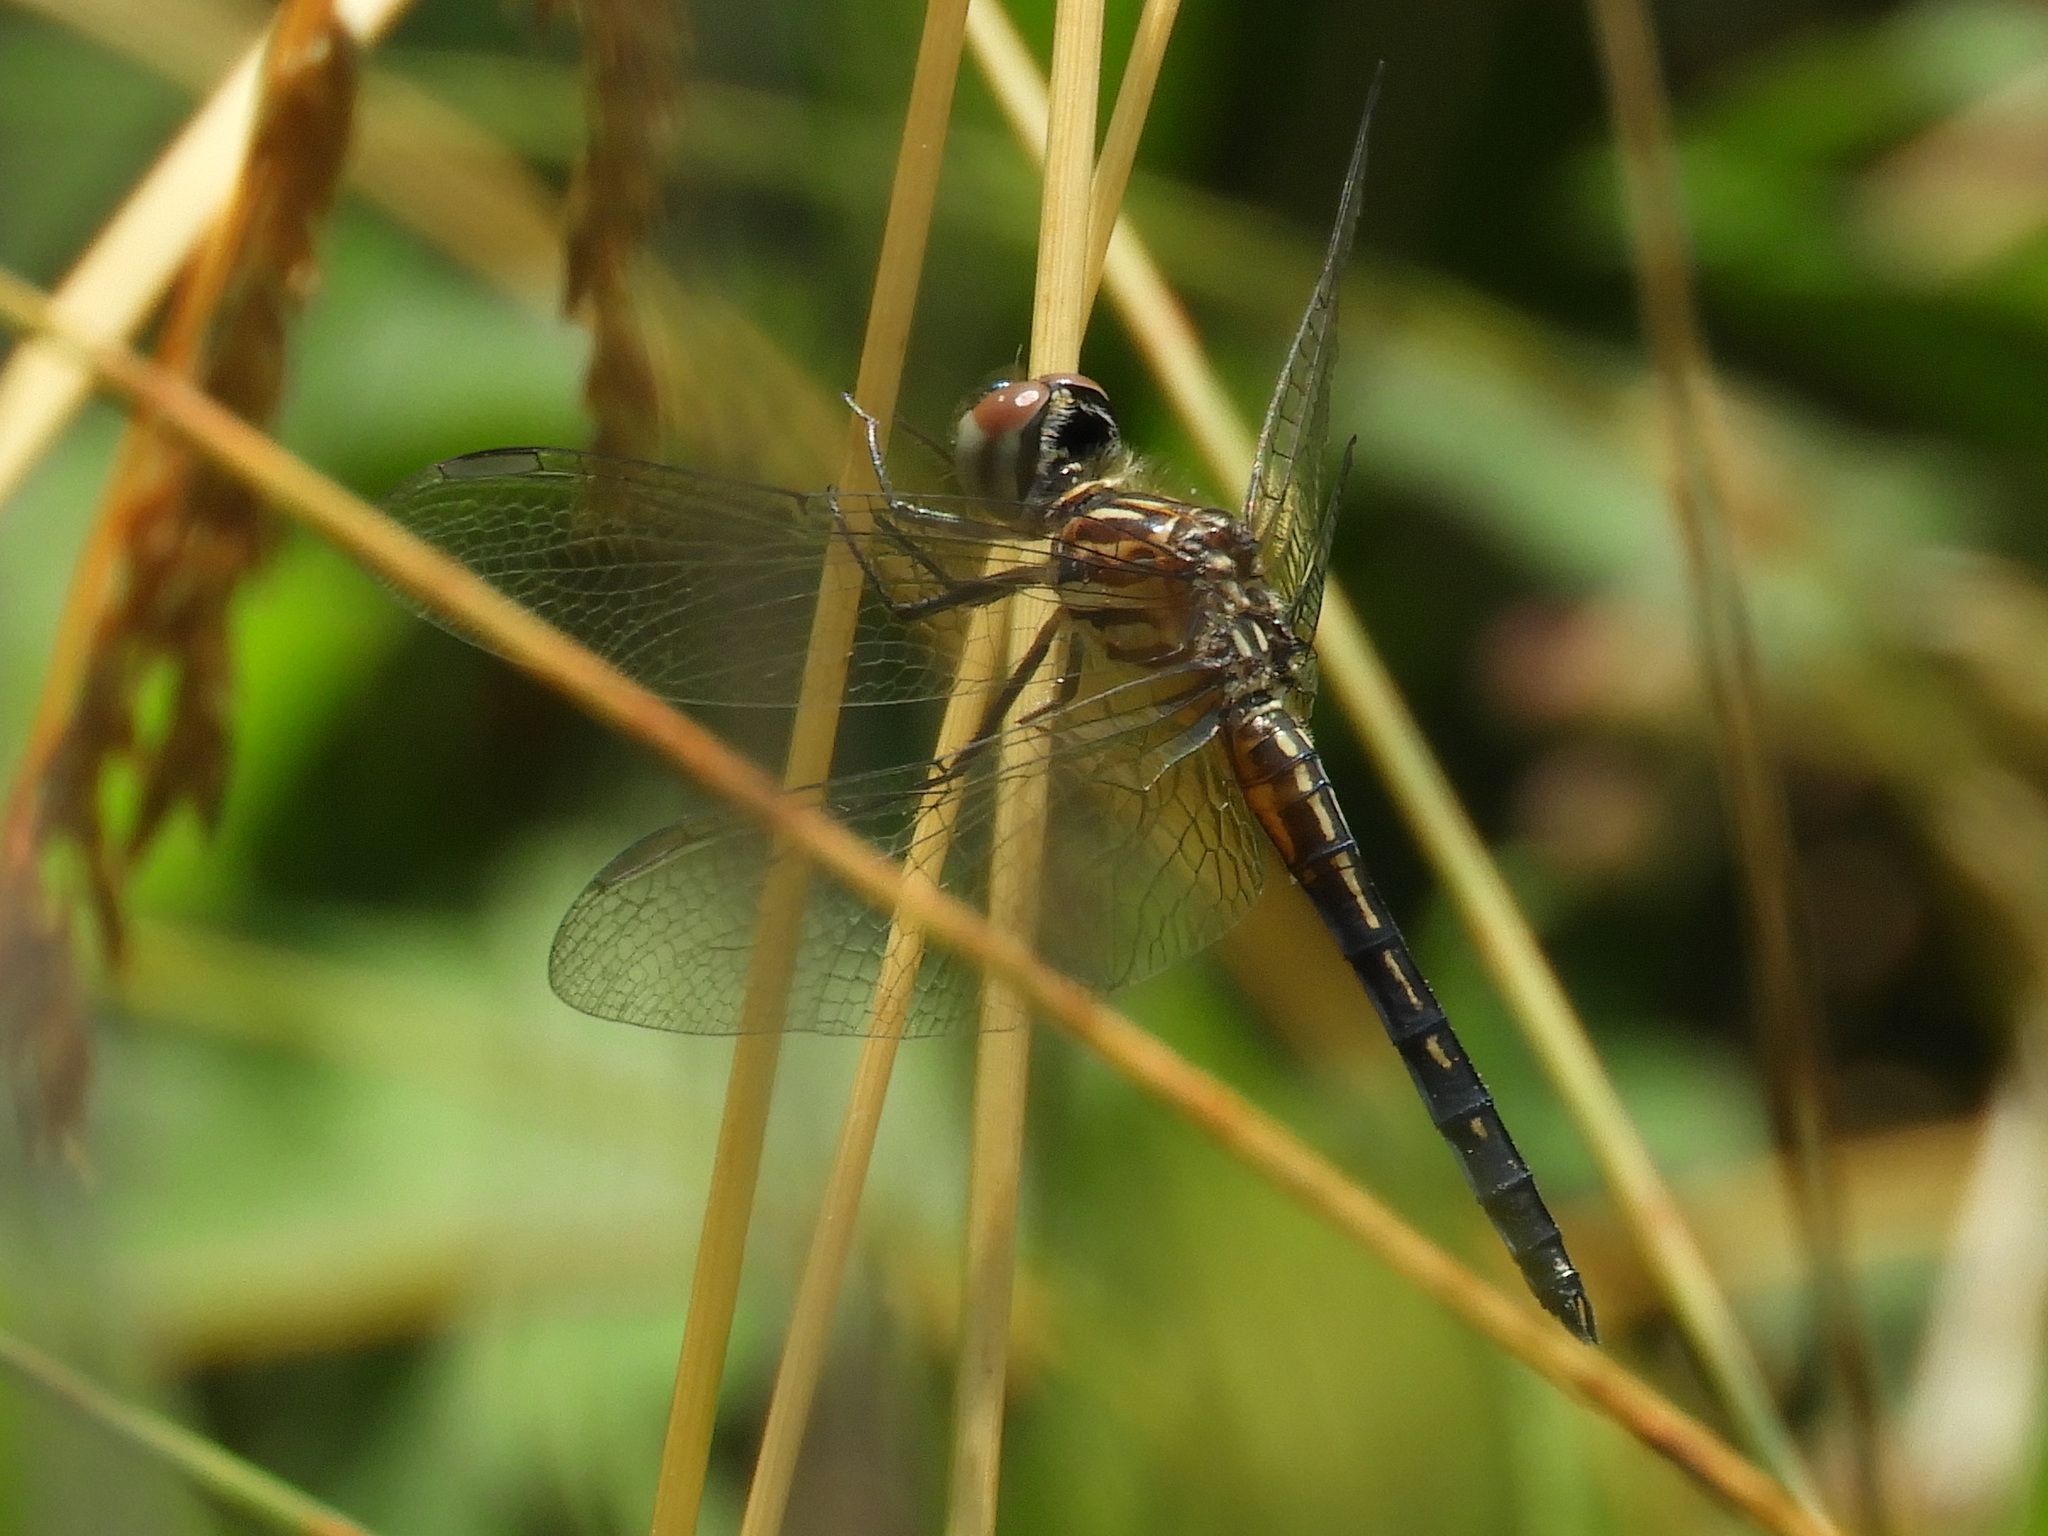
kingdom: Animalia
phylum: Arthropoda
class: Insecta
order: Odonata
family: Libellulidae
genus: Pachydiplax
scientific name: Pachydiplax longipennis
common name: Blue dasher
